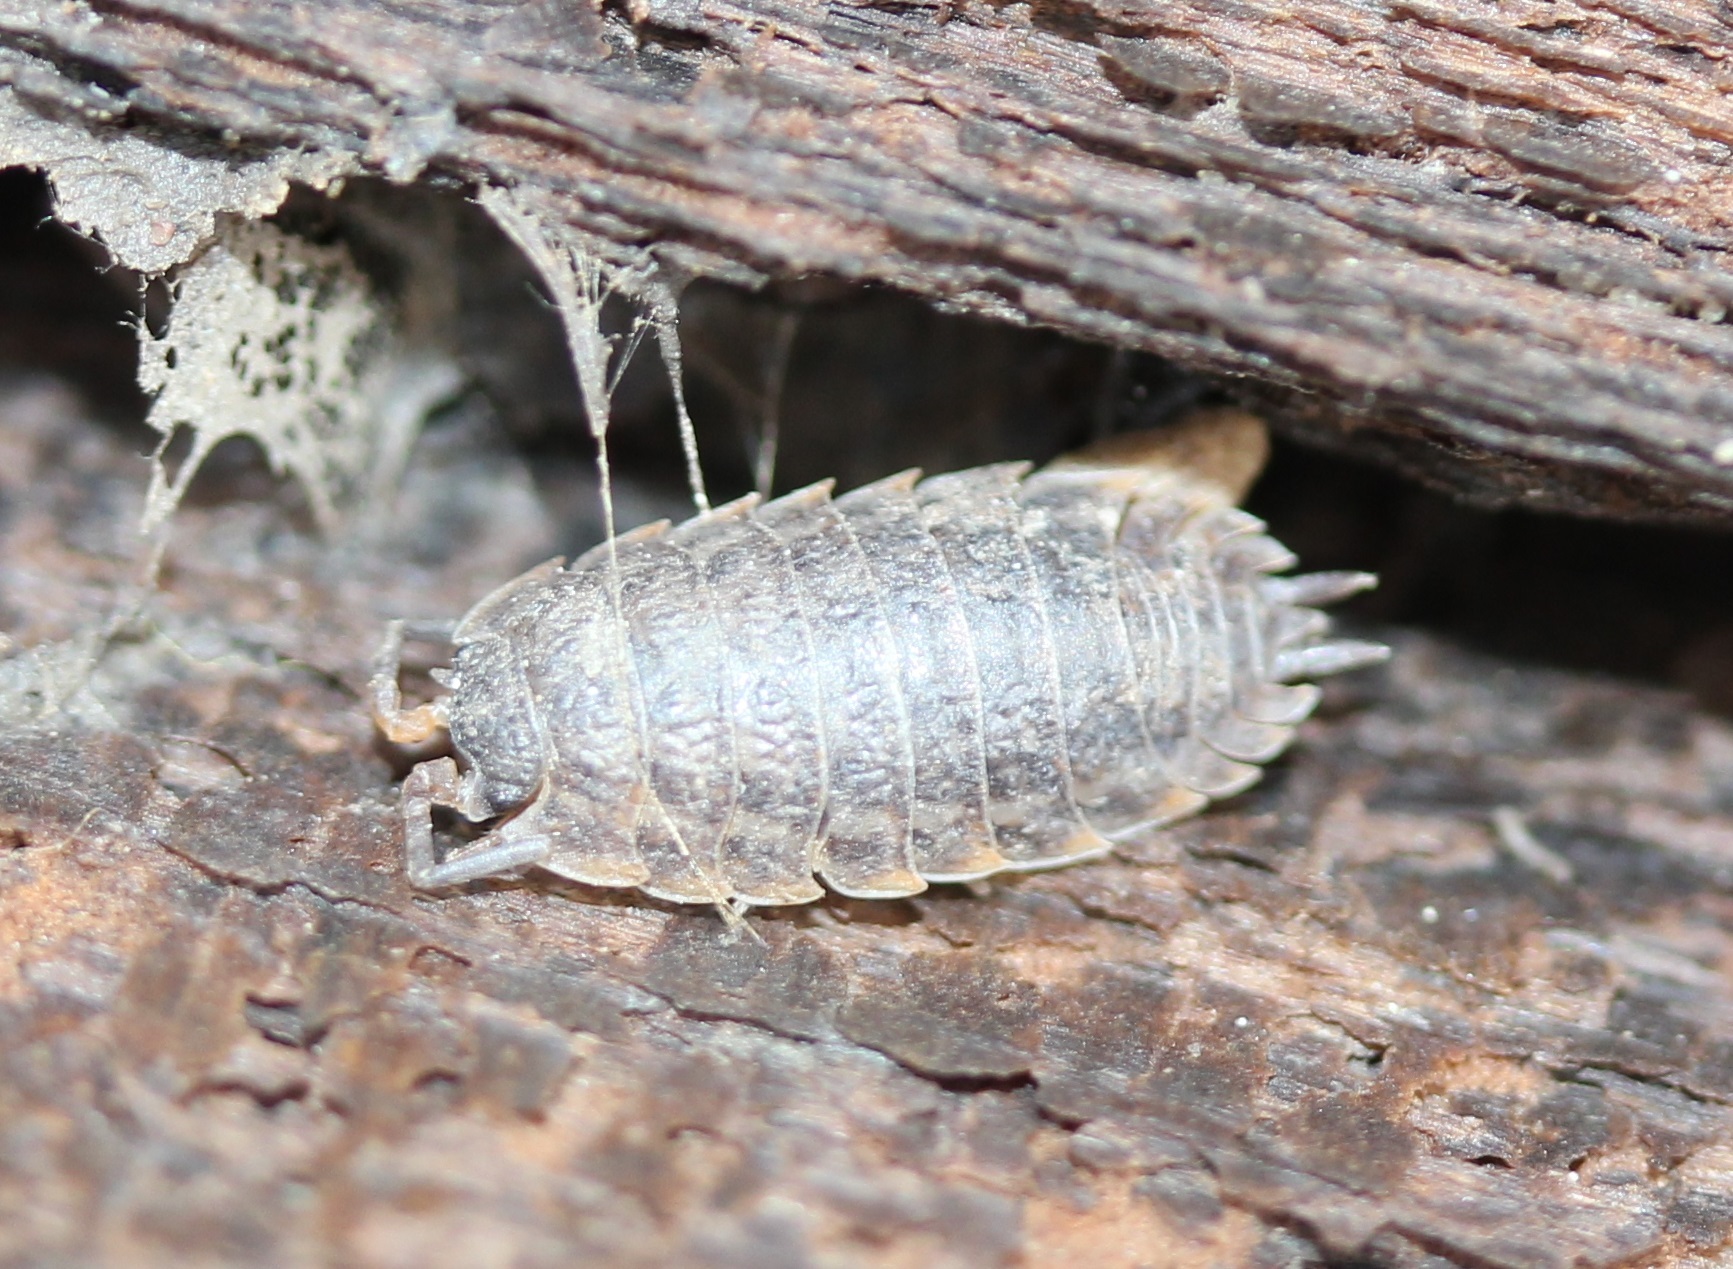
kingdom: Animalia
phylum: Arthropoda
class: Malacostraca
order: Isopoda
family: Trachelipodidae
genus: Trachelipus
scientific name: Trachelipus rathkii
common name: Isopod
